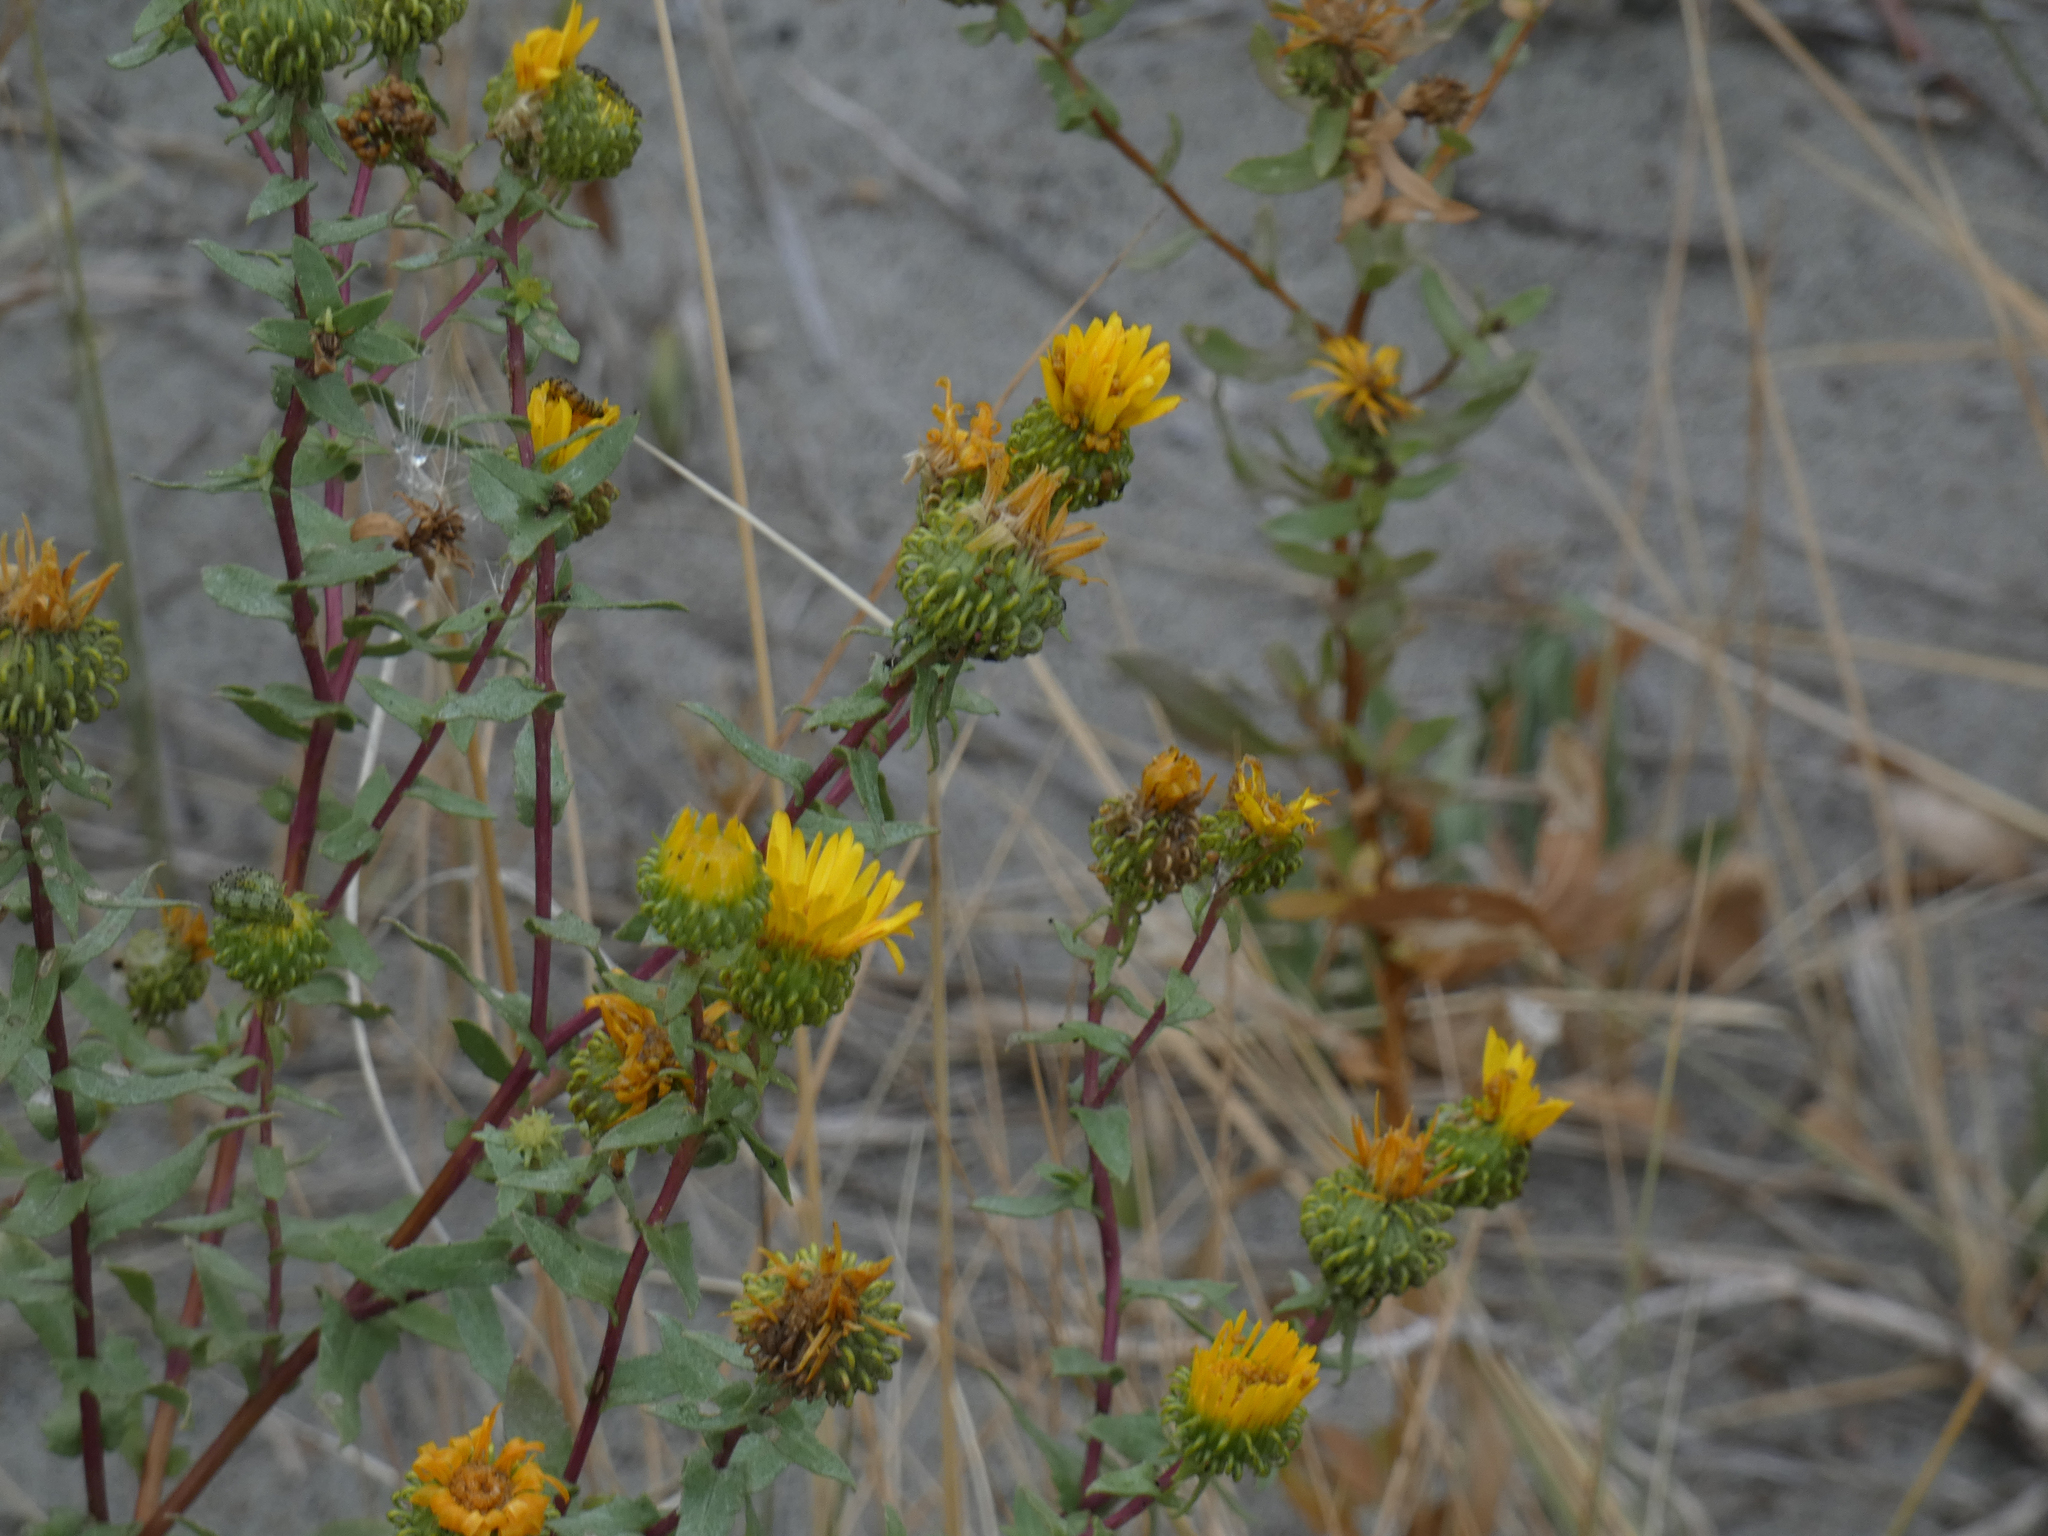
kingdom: Plantae
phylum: Tracheophyta
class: Magnoliopsida
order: Asterales
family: Asteraceae
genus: Grindelia
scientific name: Grindelia squarrosa
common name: Curly-cup gumweed
